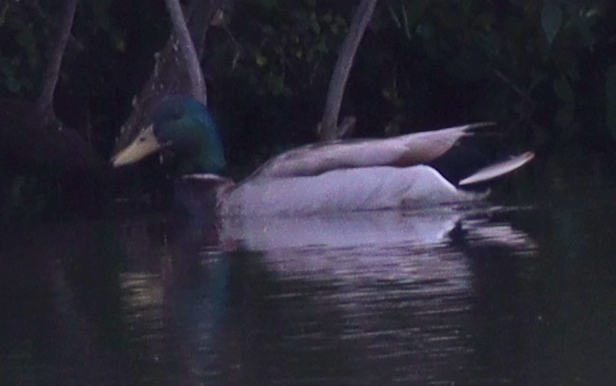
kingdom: Animalia
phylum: Chordata
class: Aves
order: Anseriformes
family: Anatidae
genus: Anas
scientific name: Anas platyrhynchos
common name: Mallard
